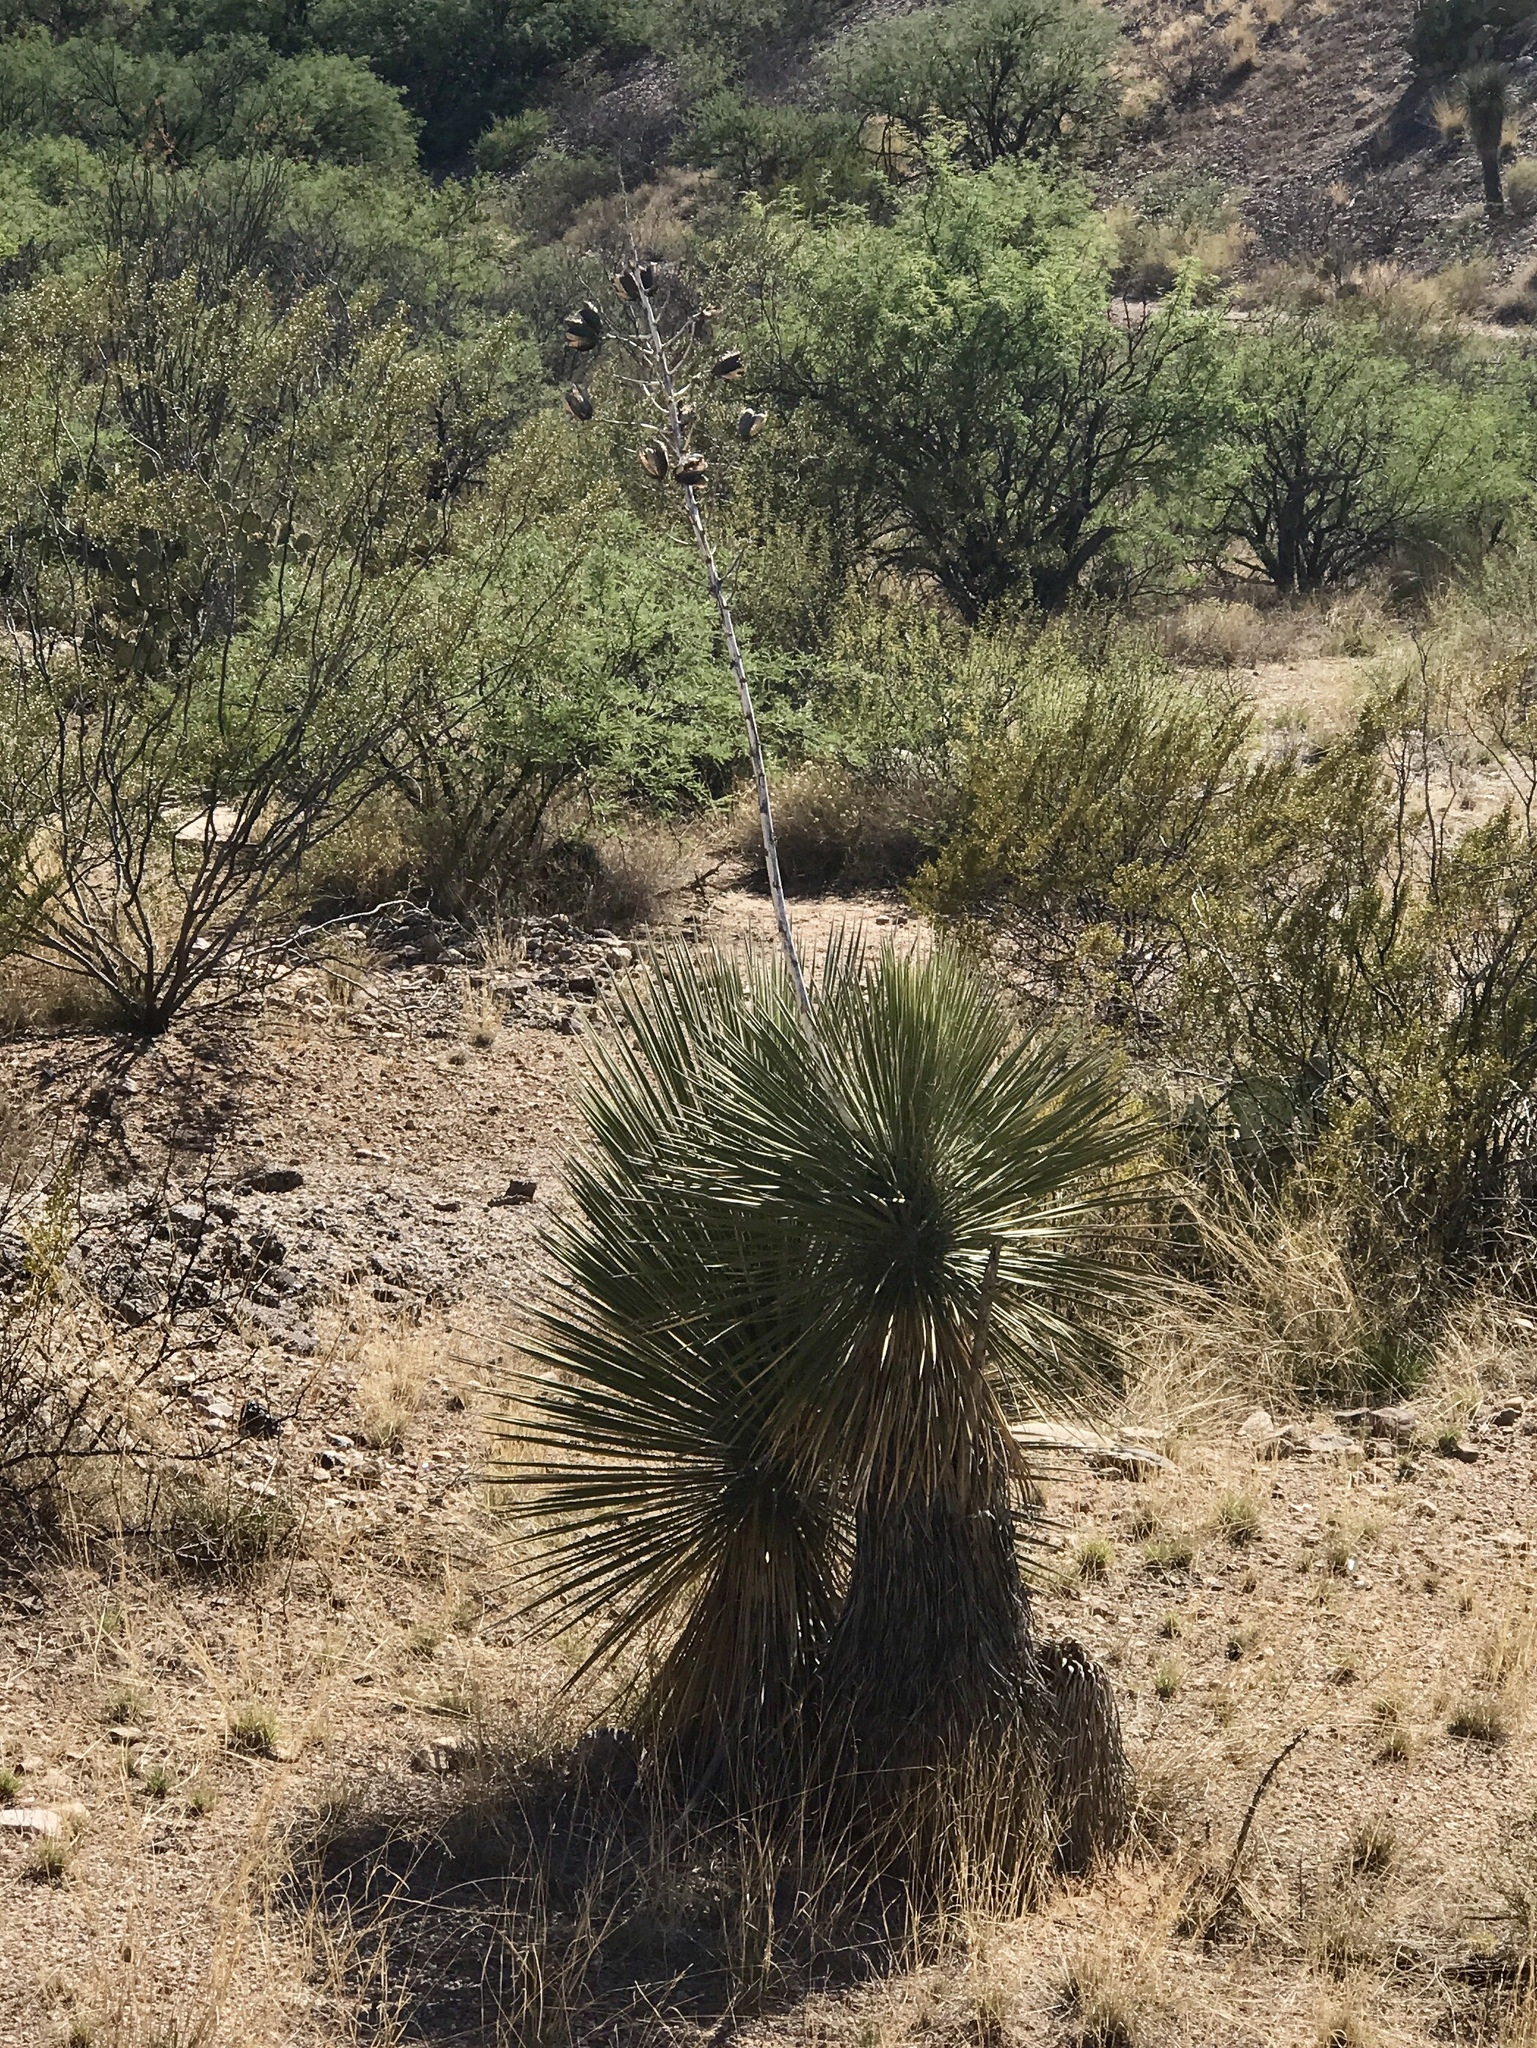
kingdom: Plantae
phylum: Tracheophyta
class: Liliopsida
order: Asparagales
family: Asparagaceae
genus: Yucca
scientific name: Yucca elata
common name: Palmella
